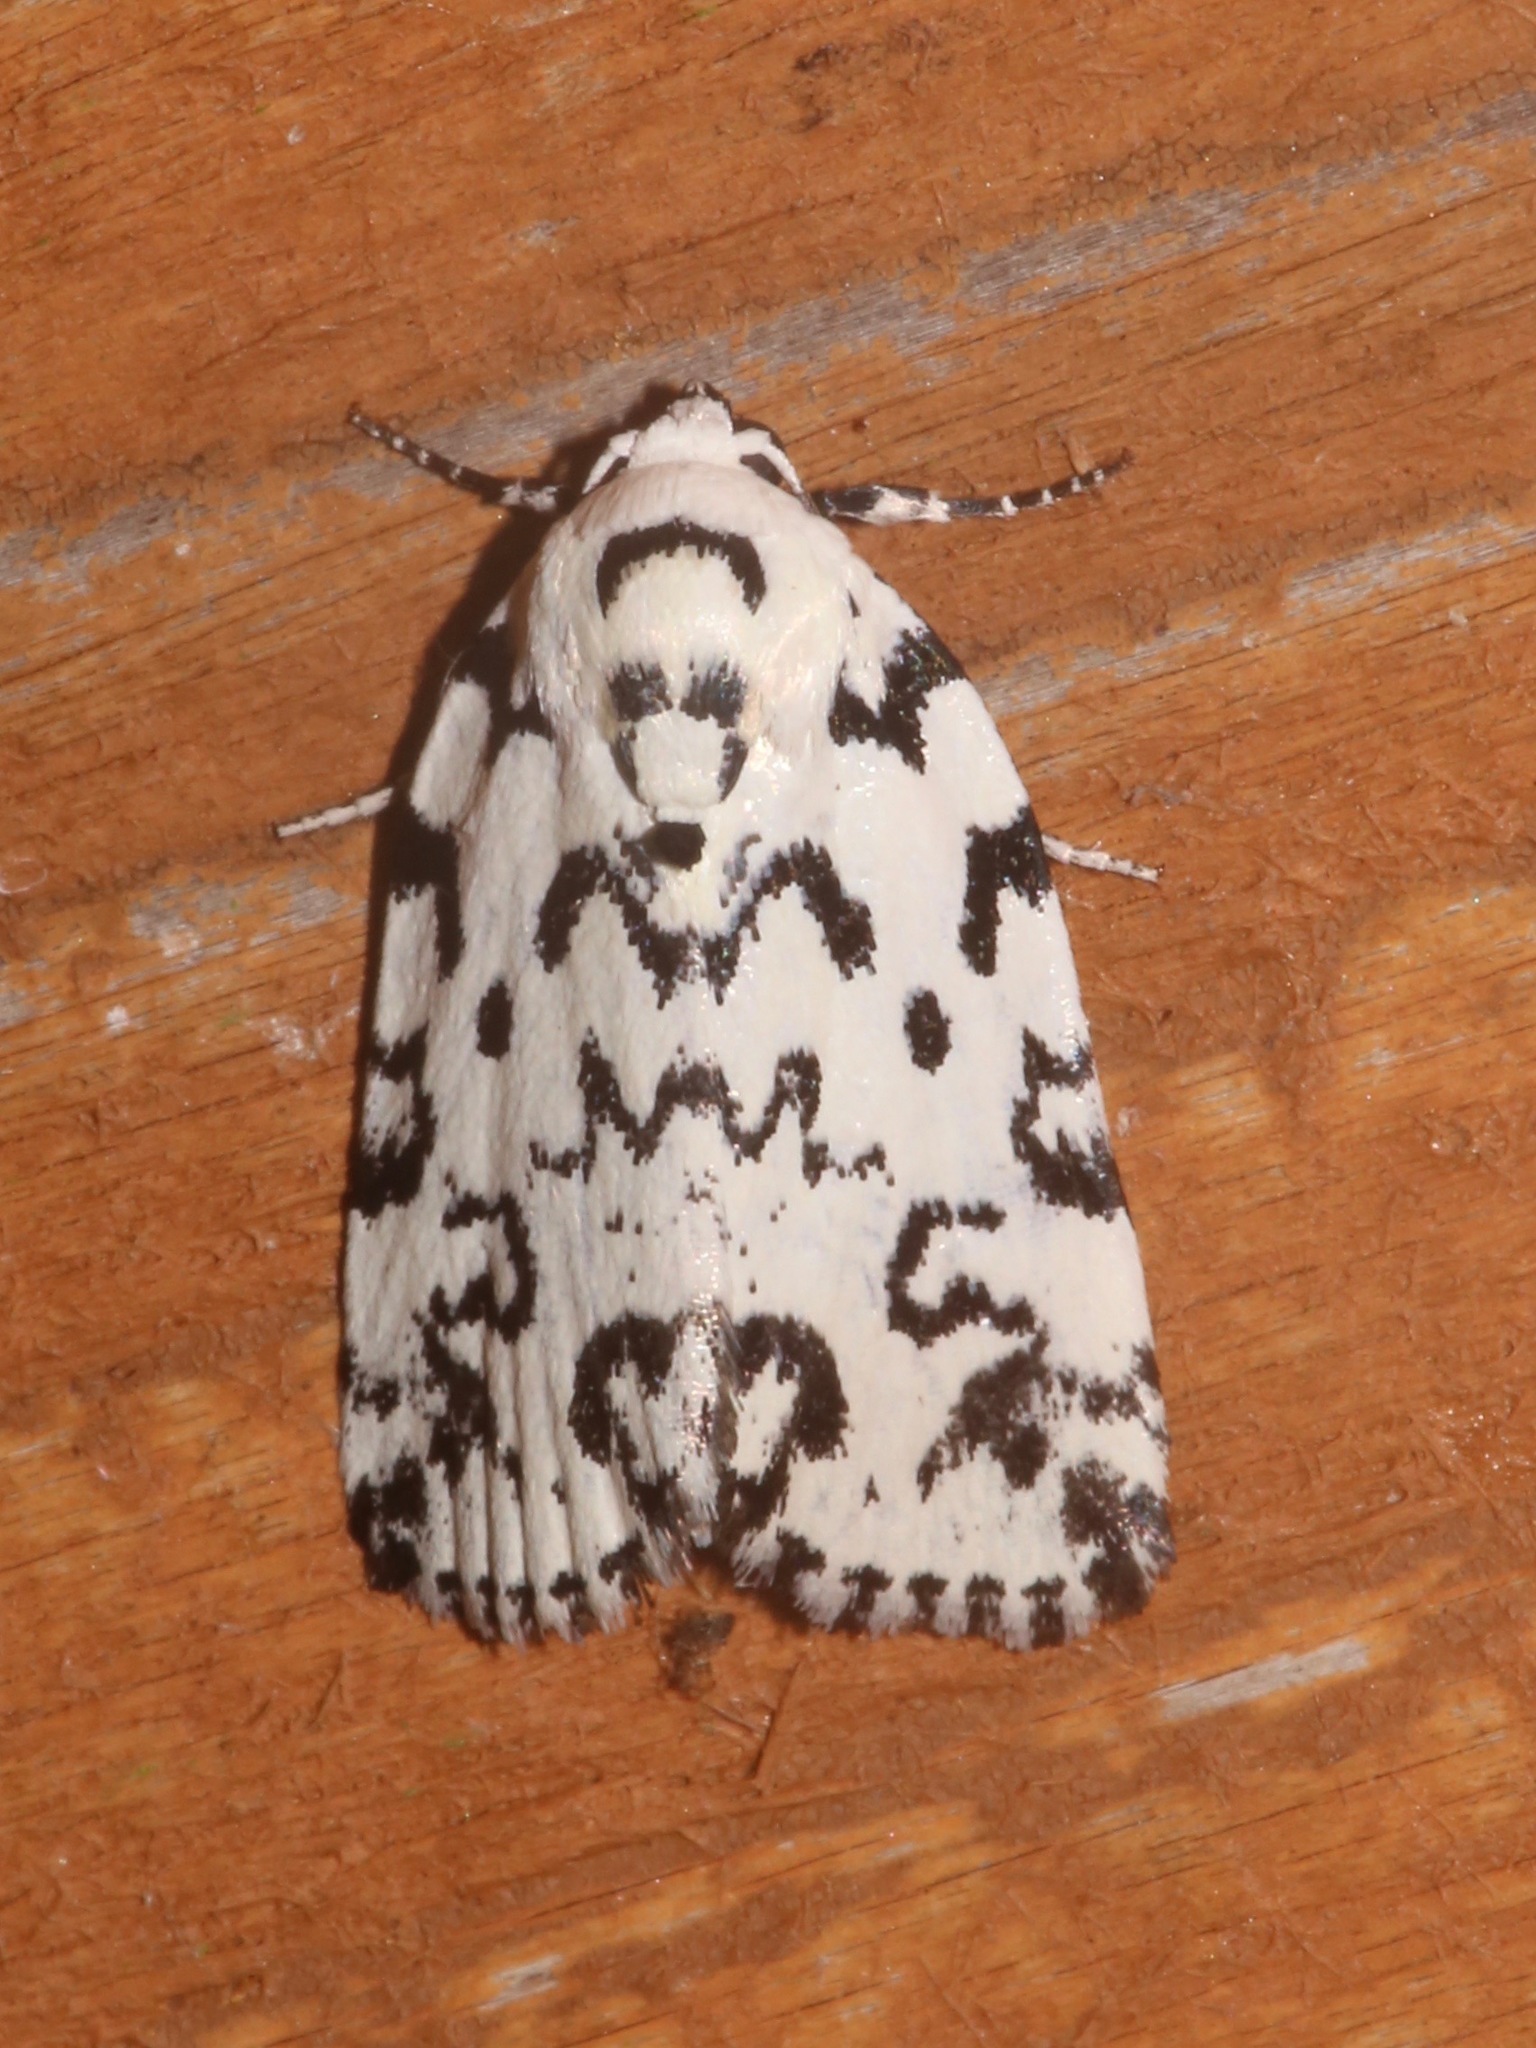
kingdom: Animalia
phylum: Arthropoda
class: Insecta
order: Lepidoptera
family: Noctuidae
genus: Polygrammate
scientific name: Polygrammate hebraeicum
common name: Hebrew moth
